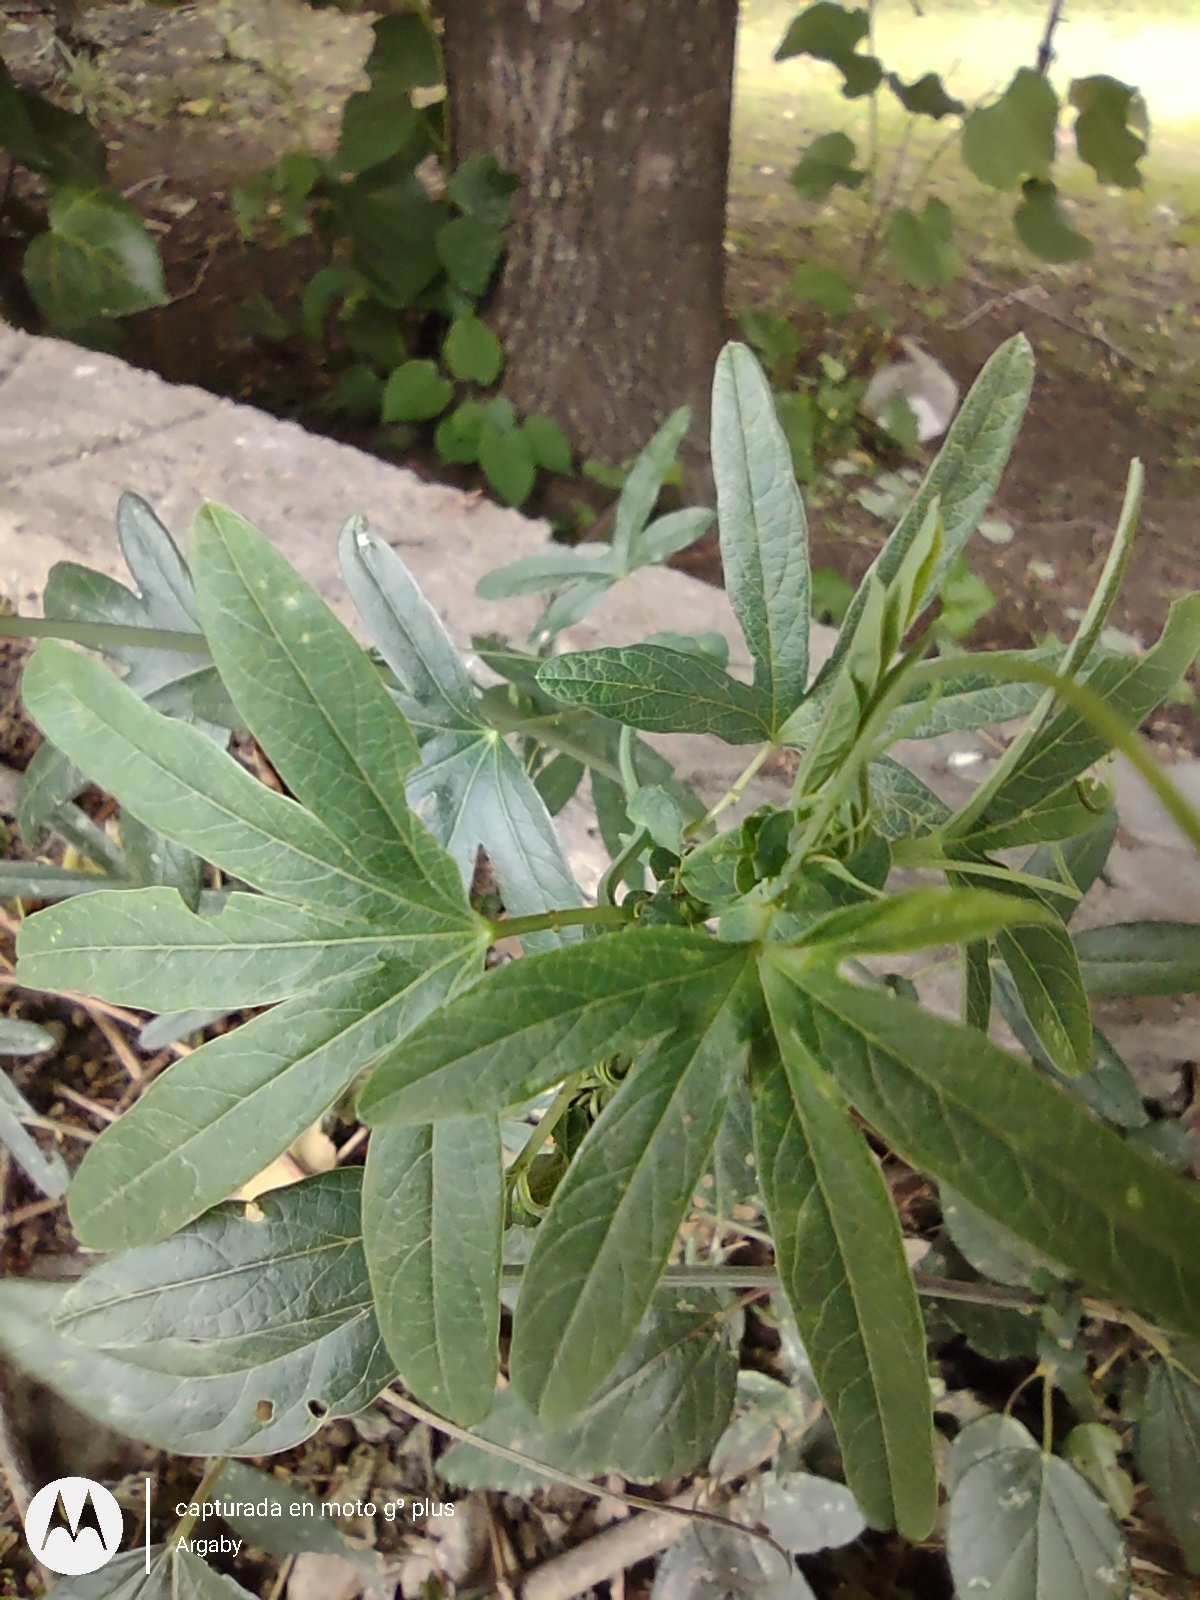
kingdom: Plantae
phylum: Tracheophyta
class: Magnoliopsida
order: Malpighiales
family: Passifloraceae
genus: Passiflora
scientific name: Passiflora caerulea
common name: Blue passionflower
